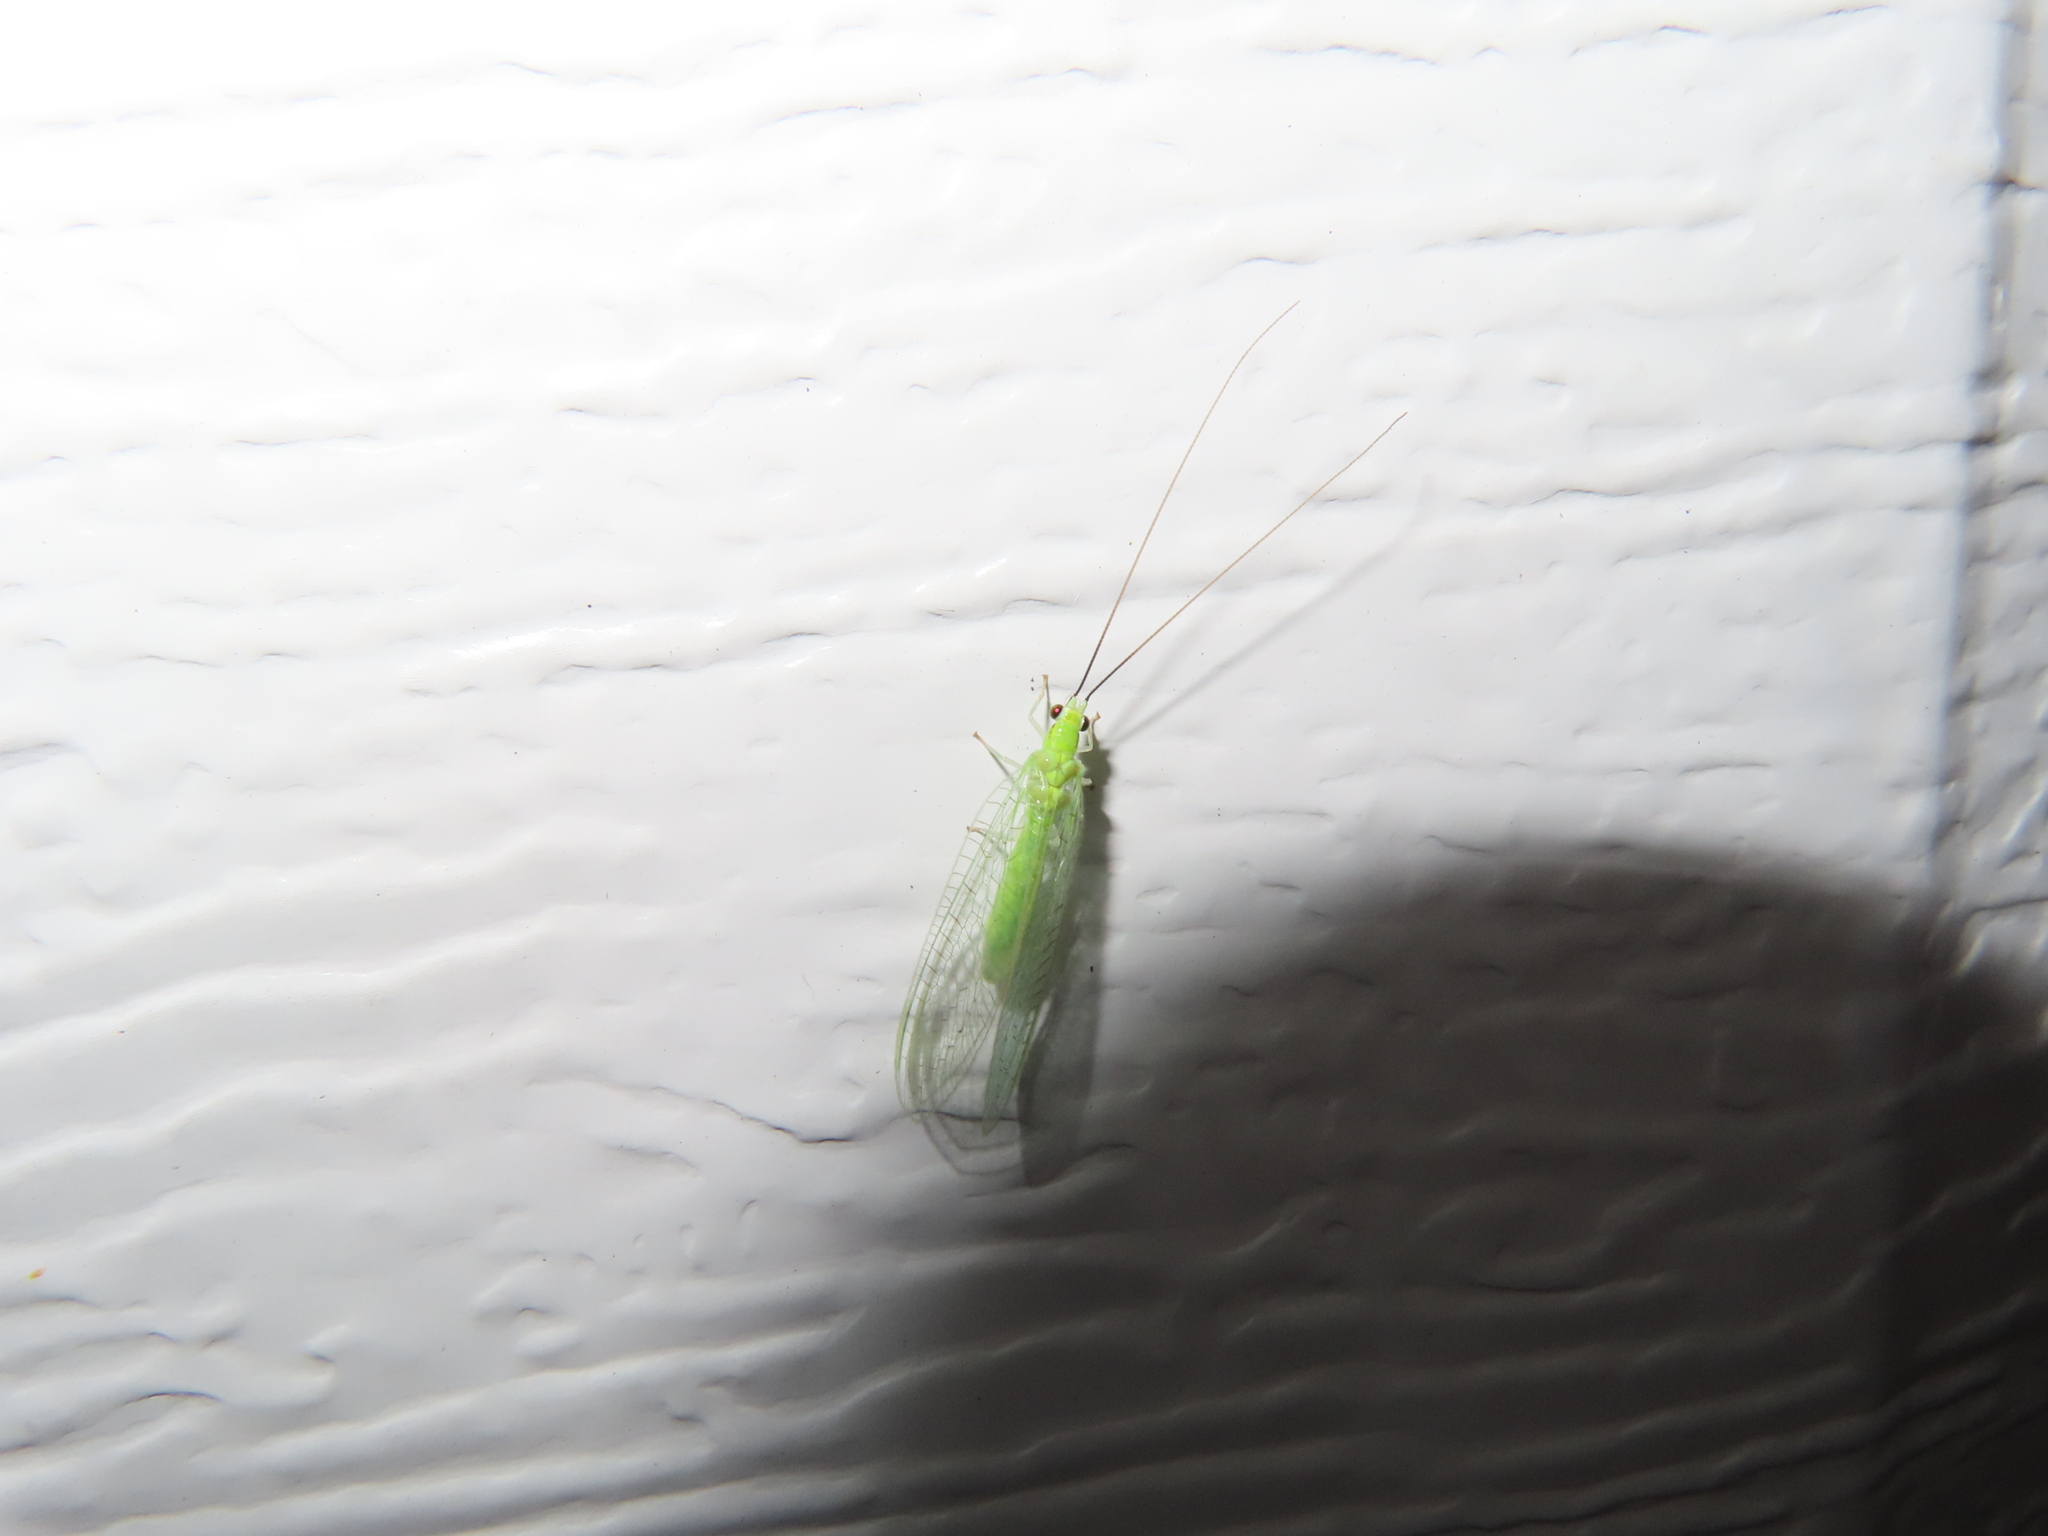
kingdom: Animalia
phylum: Arthropoda
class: Insecta
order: Neuroptera
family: Chrysopidae
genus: Ceraeochrysa
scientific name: Ceraeochrysa lineaticornis
